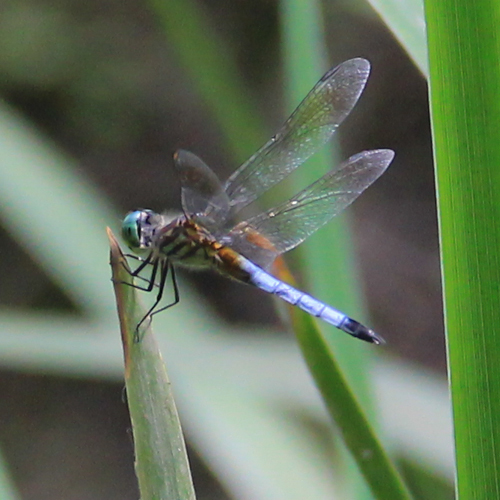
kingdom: Animalia
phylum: Arthropoda
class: Insecta
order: Odonata
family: Libellulidae
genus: Pachydiplax
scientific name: Pachydiplax longipennis
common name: Blue dasher
